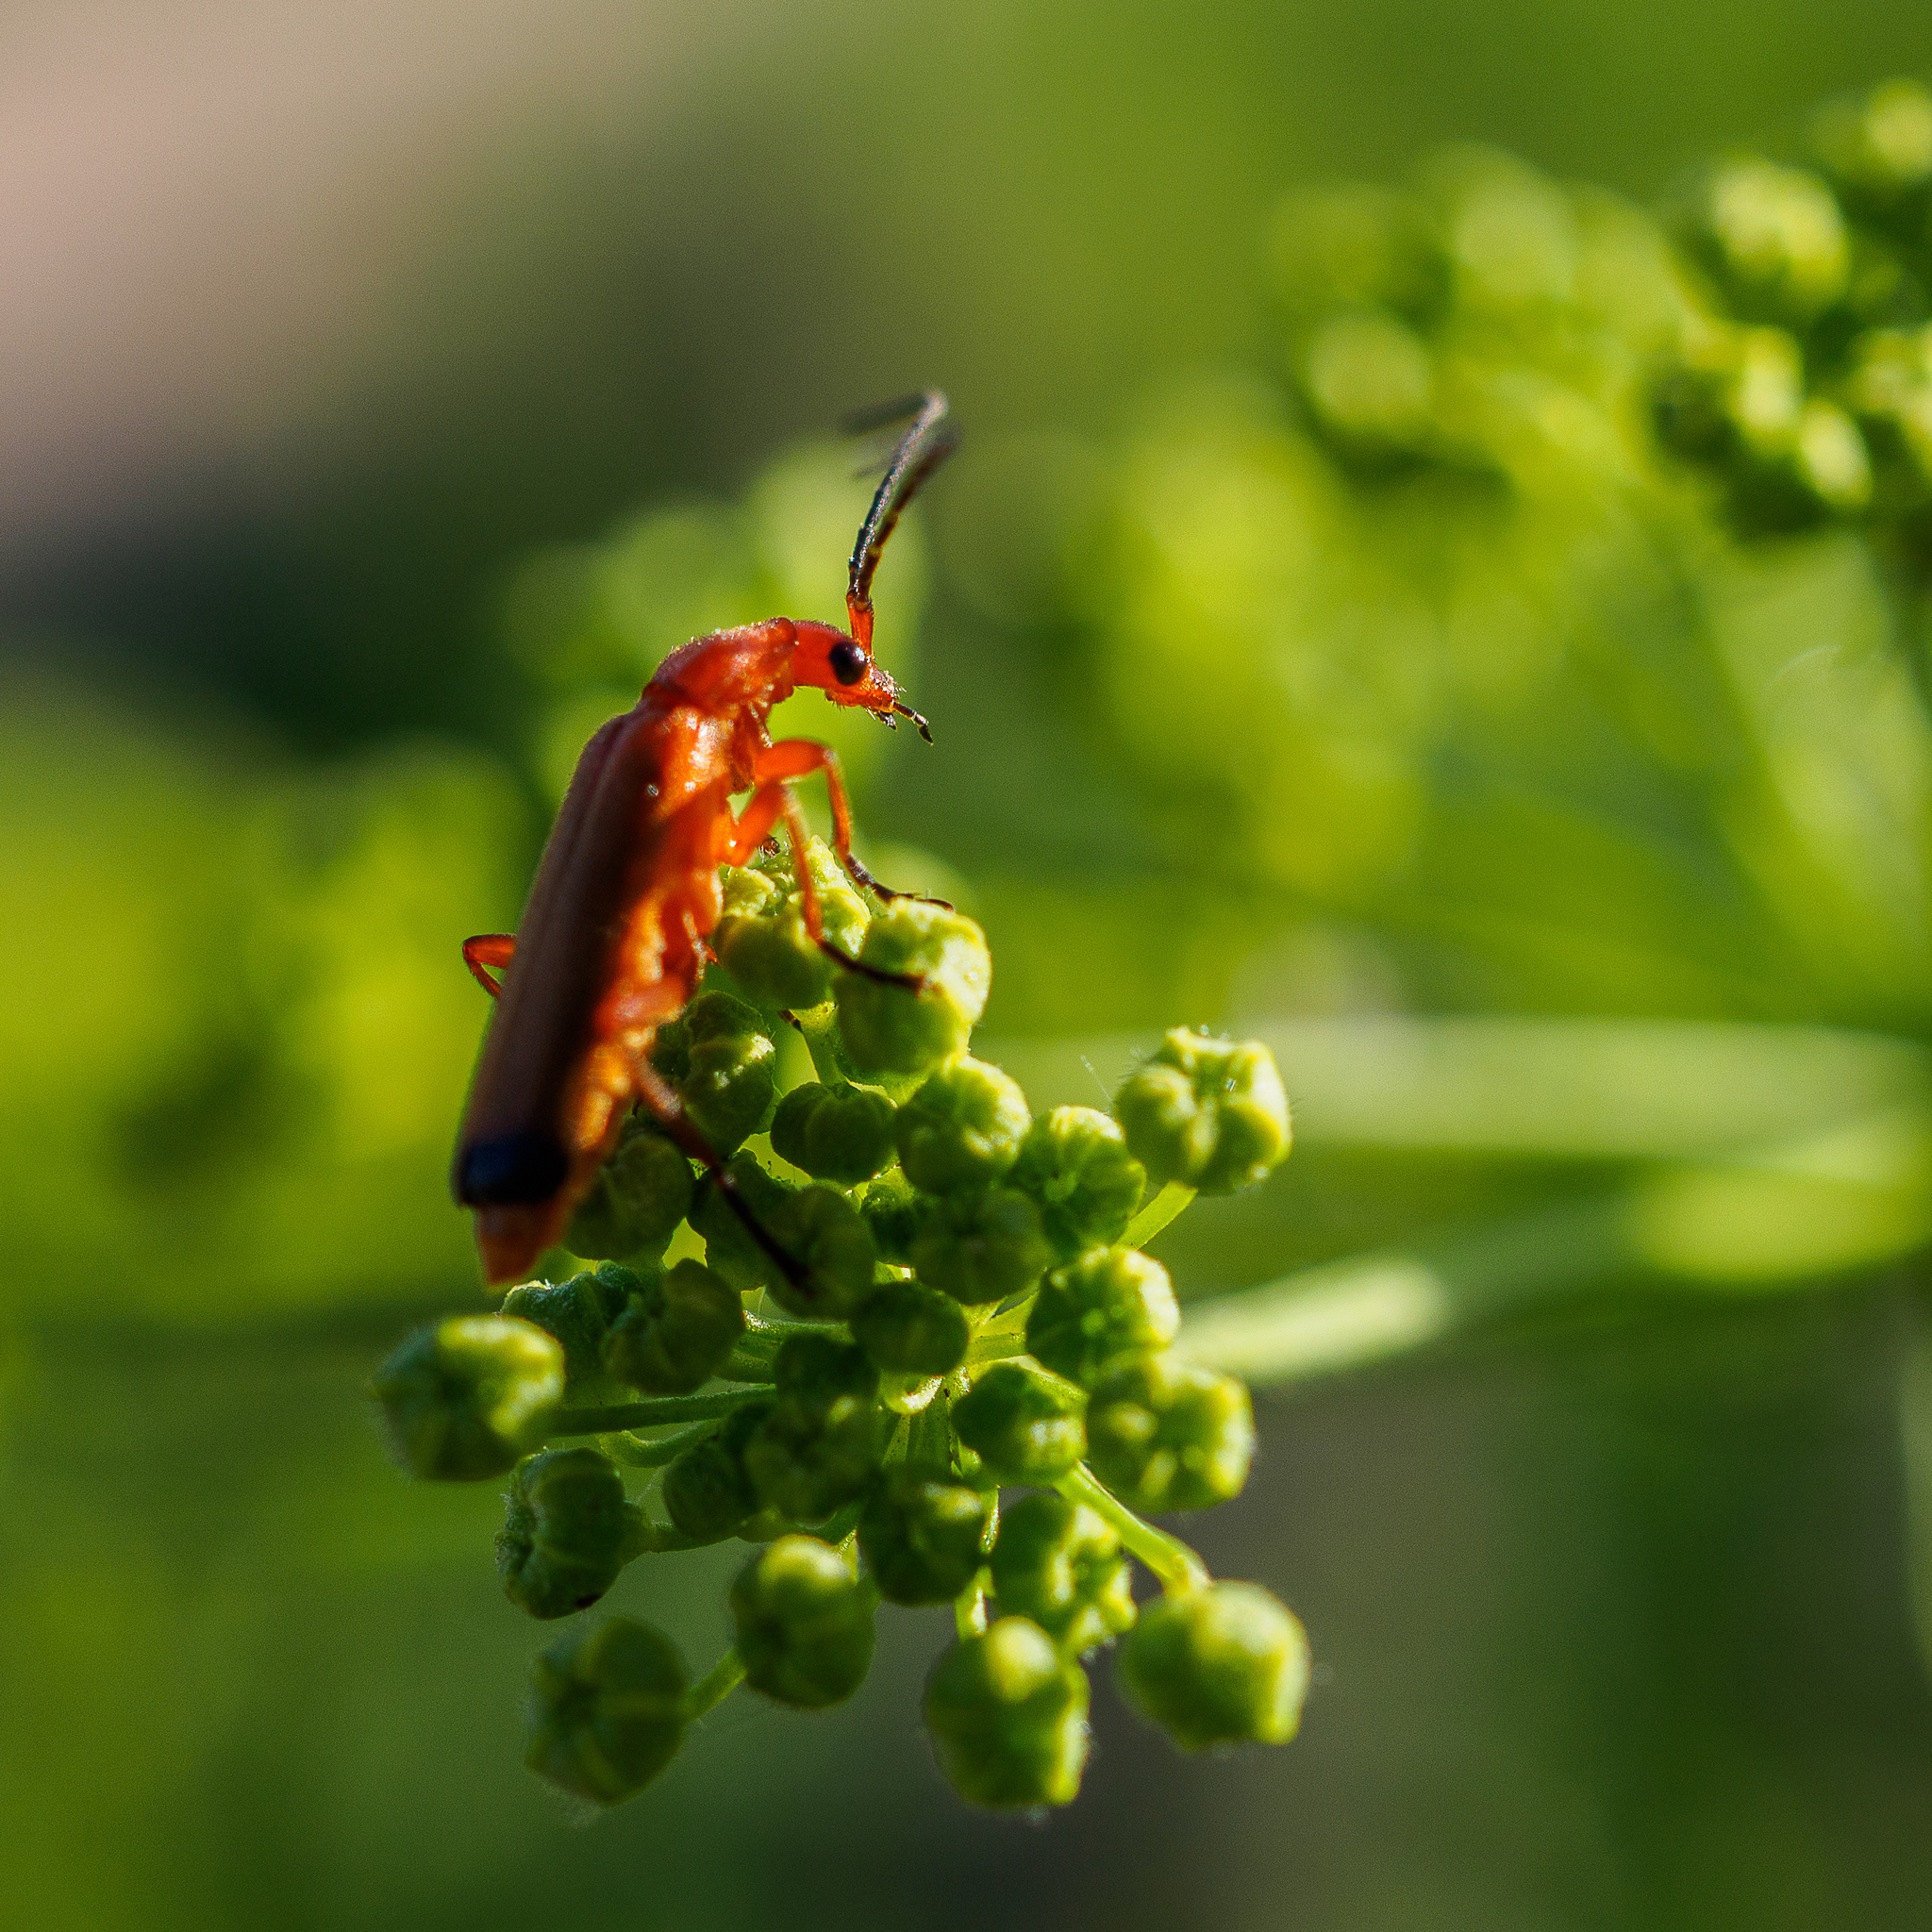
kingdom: Animalia
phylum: Arthropoda
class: Insecta
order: Coleoptera
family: Cantharidae
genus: Rhagonycha
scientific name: Rhagonycha fulva
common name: Common red soldier beetle
